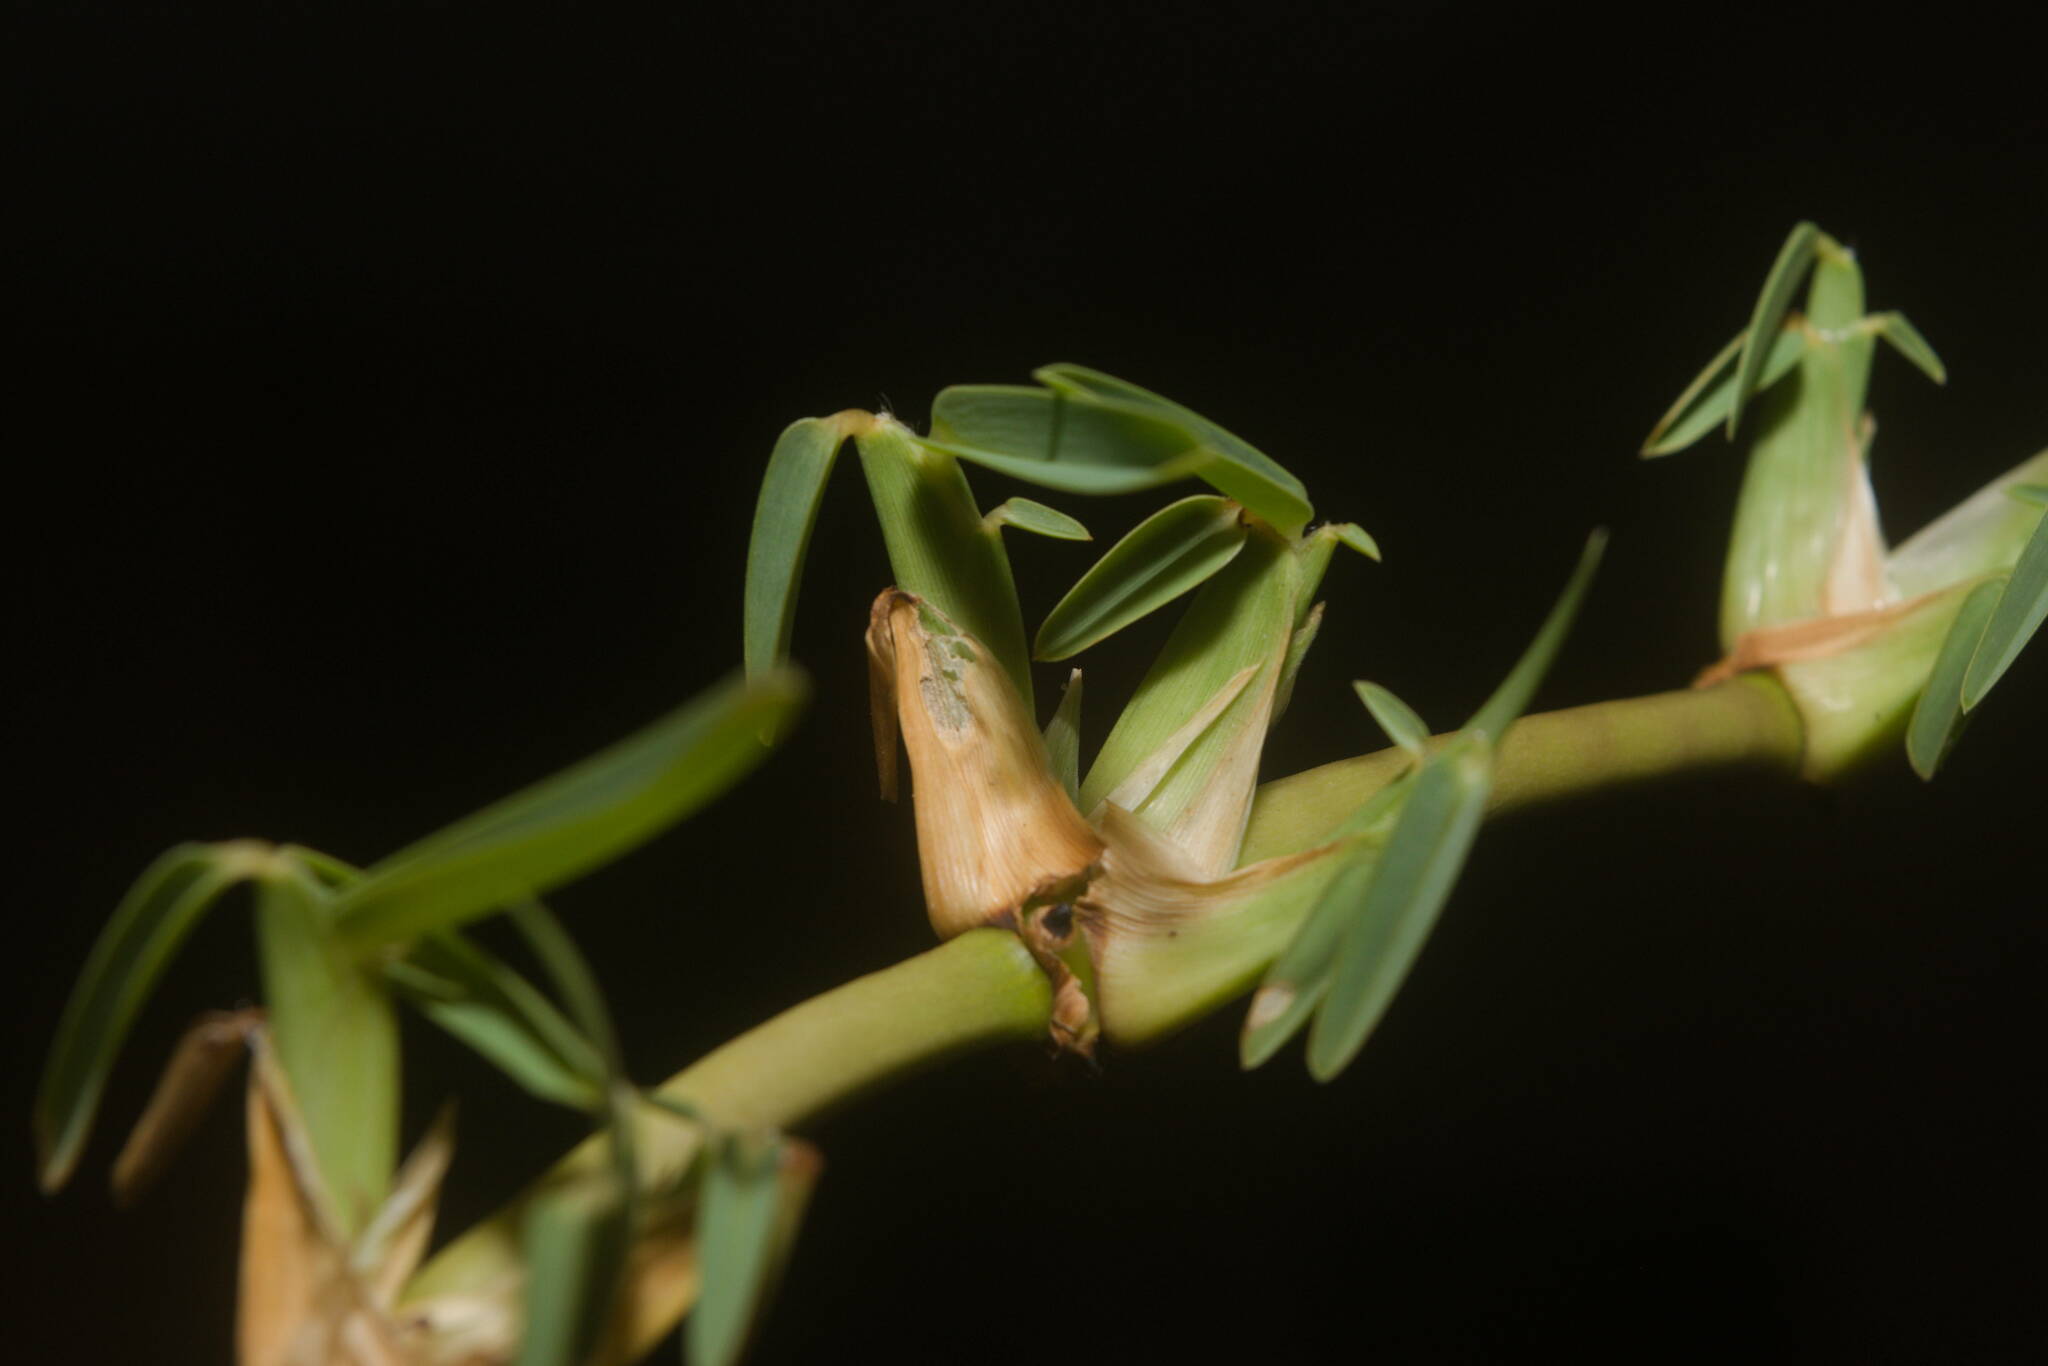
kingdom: Plantae
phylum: Tracheophyta
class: Liliopsida
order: Poales
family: Poaceae
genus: Stenotaphrum
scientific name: Stenotaphrum secundatum
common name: St. augustine grass
